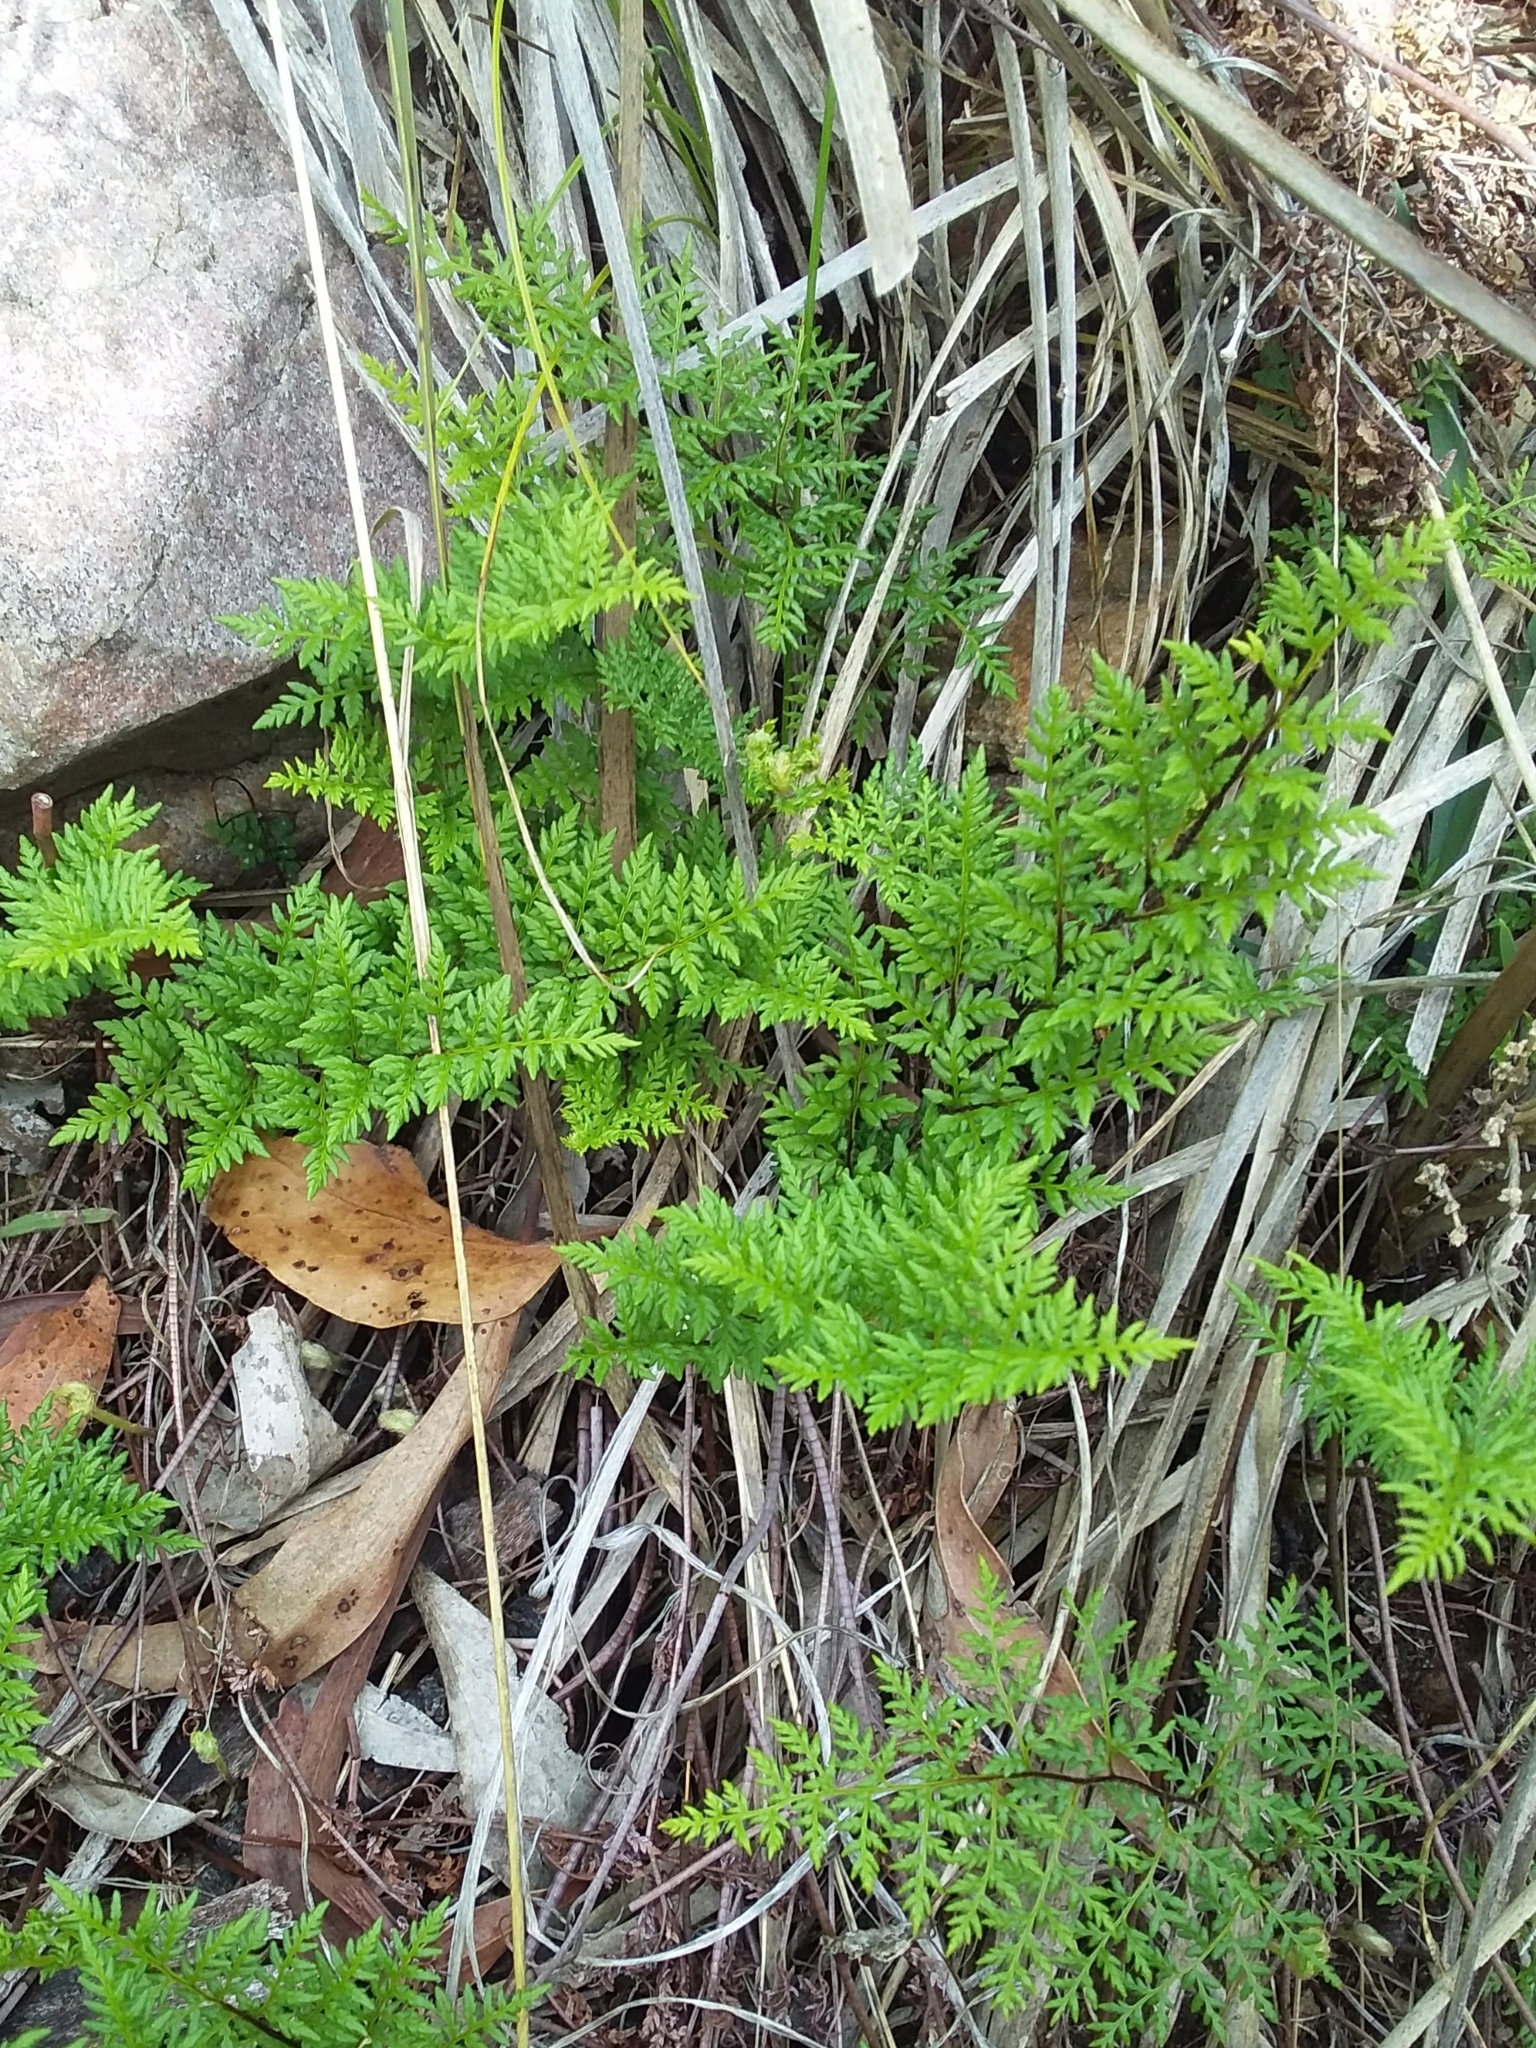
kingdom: Plantae
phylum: Tracheophyta
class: Polypodiopsida
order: Polypodiales
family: Pteridaceae
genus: Cheilanthes
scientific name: Cheilanthes austrotenuifolia
